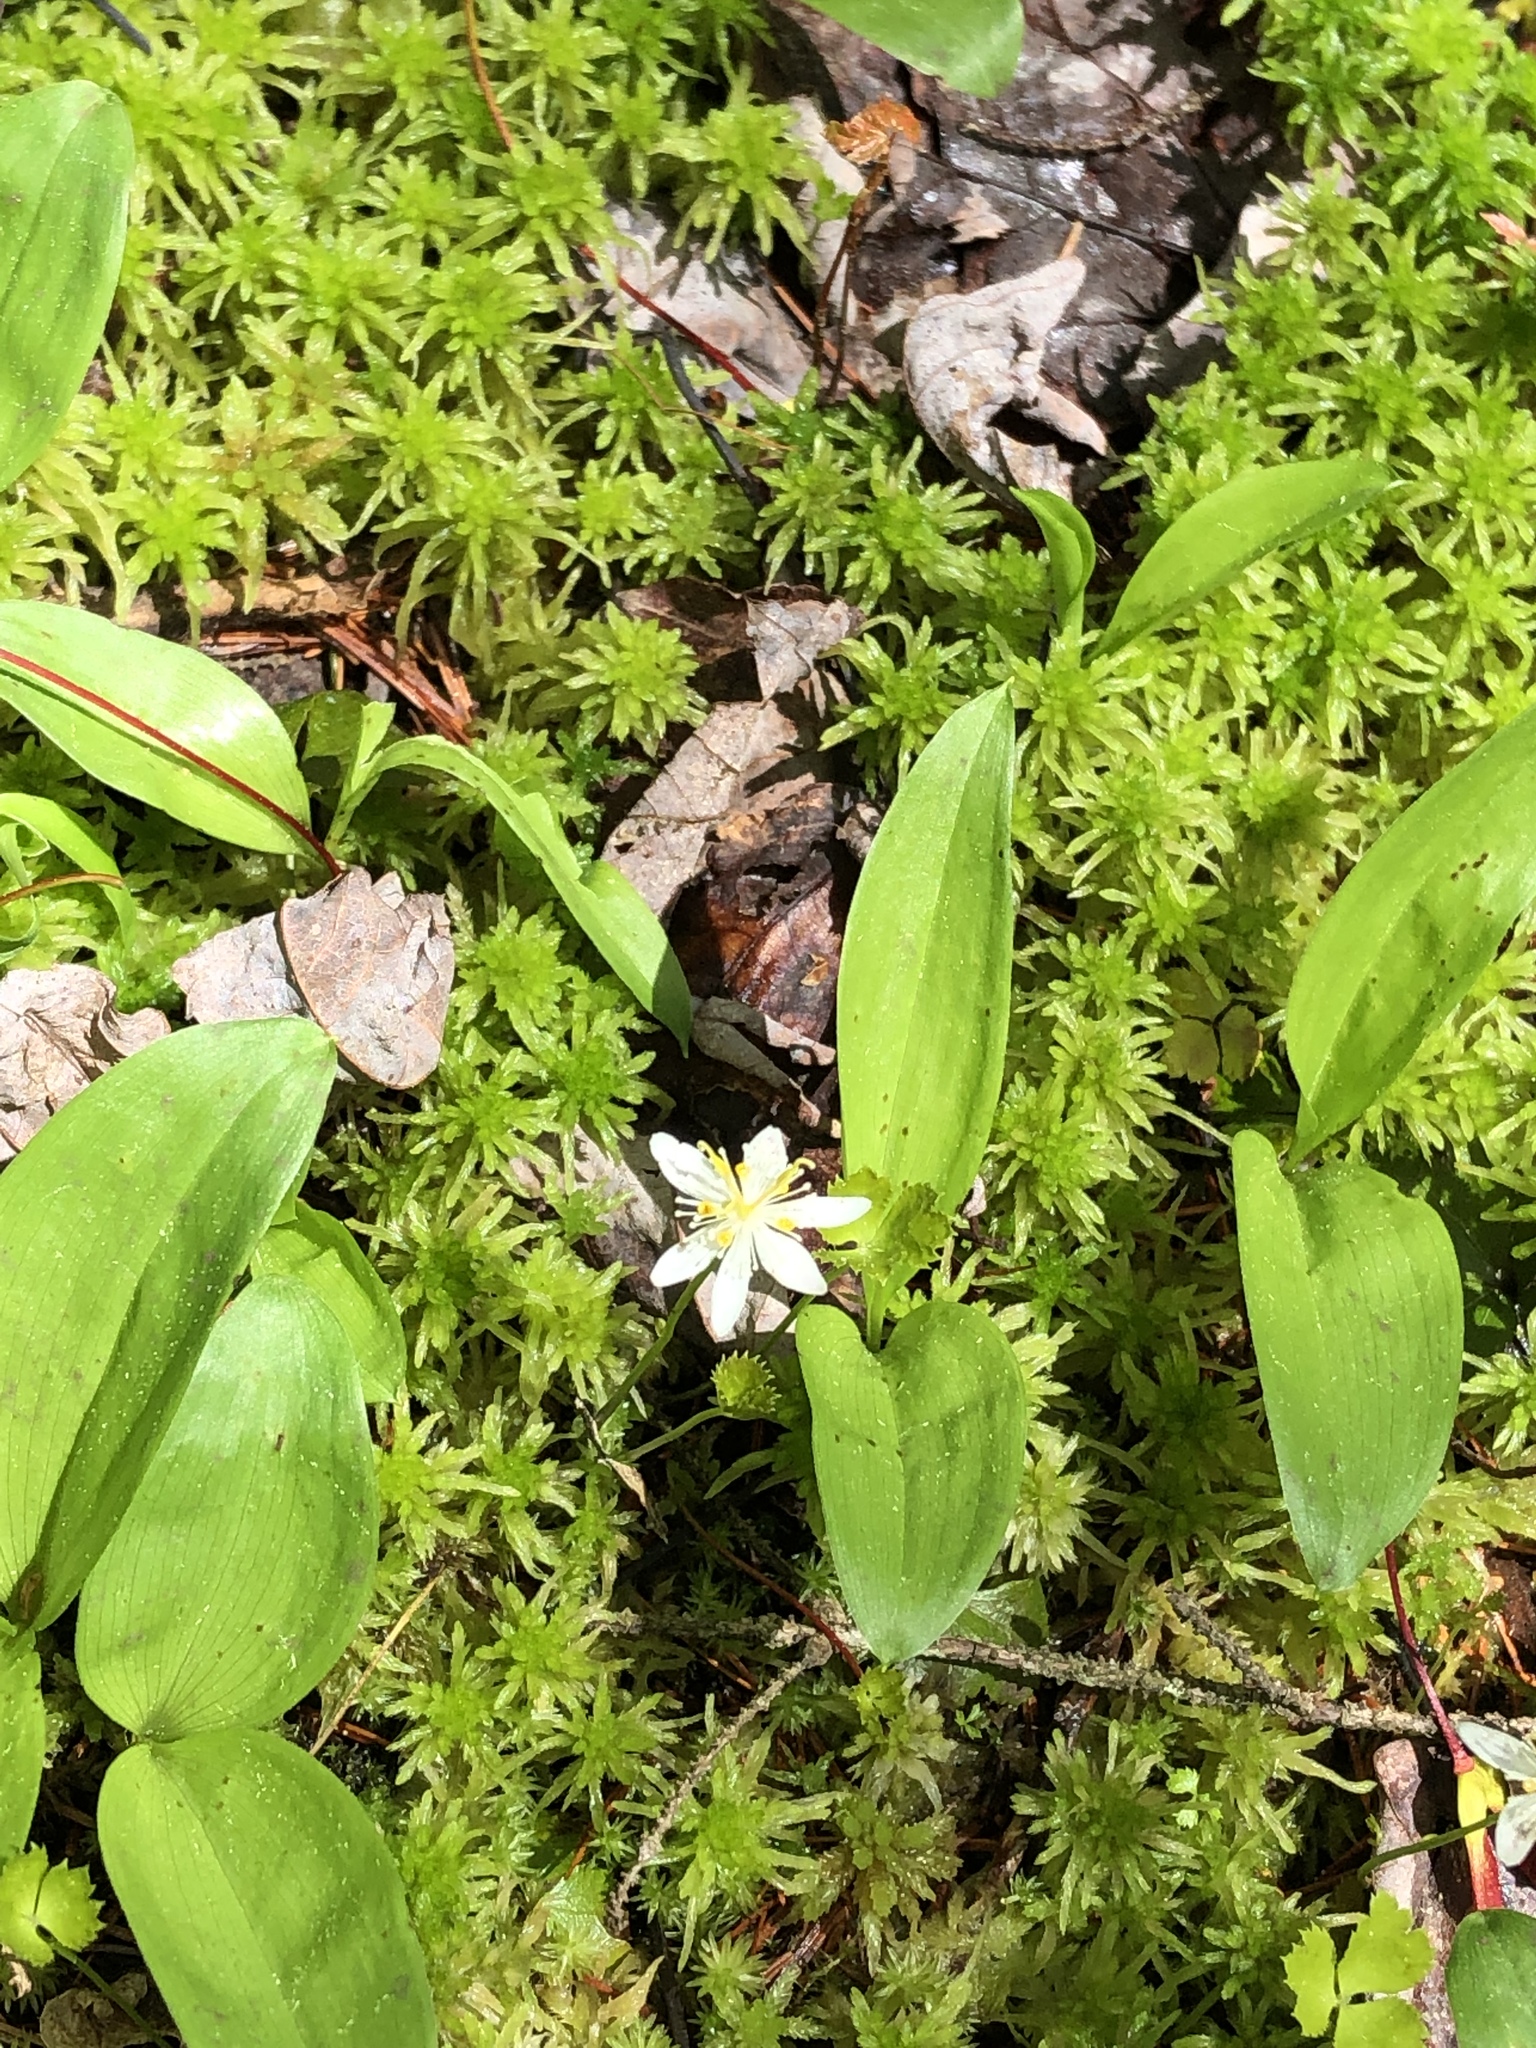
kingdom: Plantae
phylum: Tracheophyta
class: Magnoliopsida
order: Ranunculales
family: Ranunculaceae
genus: Coptis
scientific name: Coptis trifolia
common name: Canker-root
